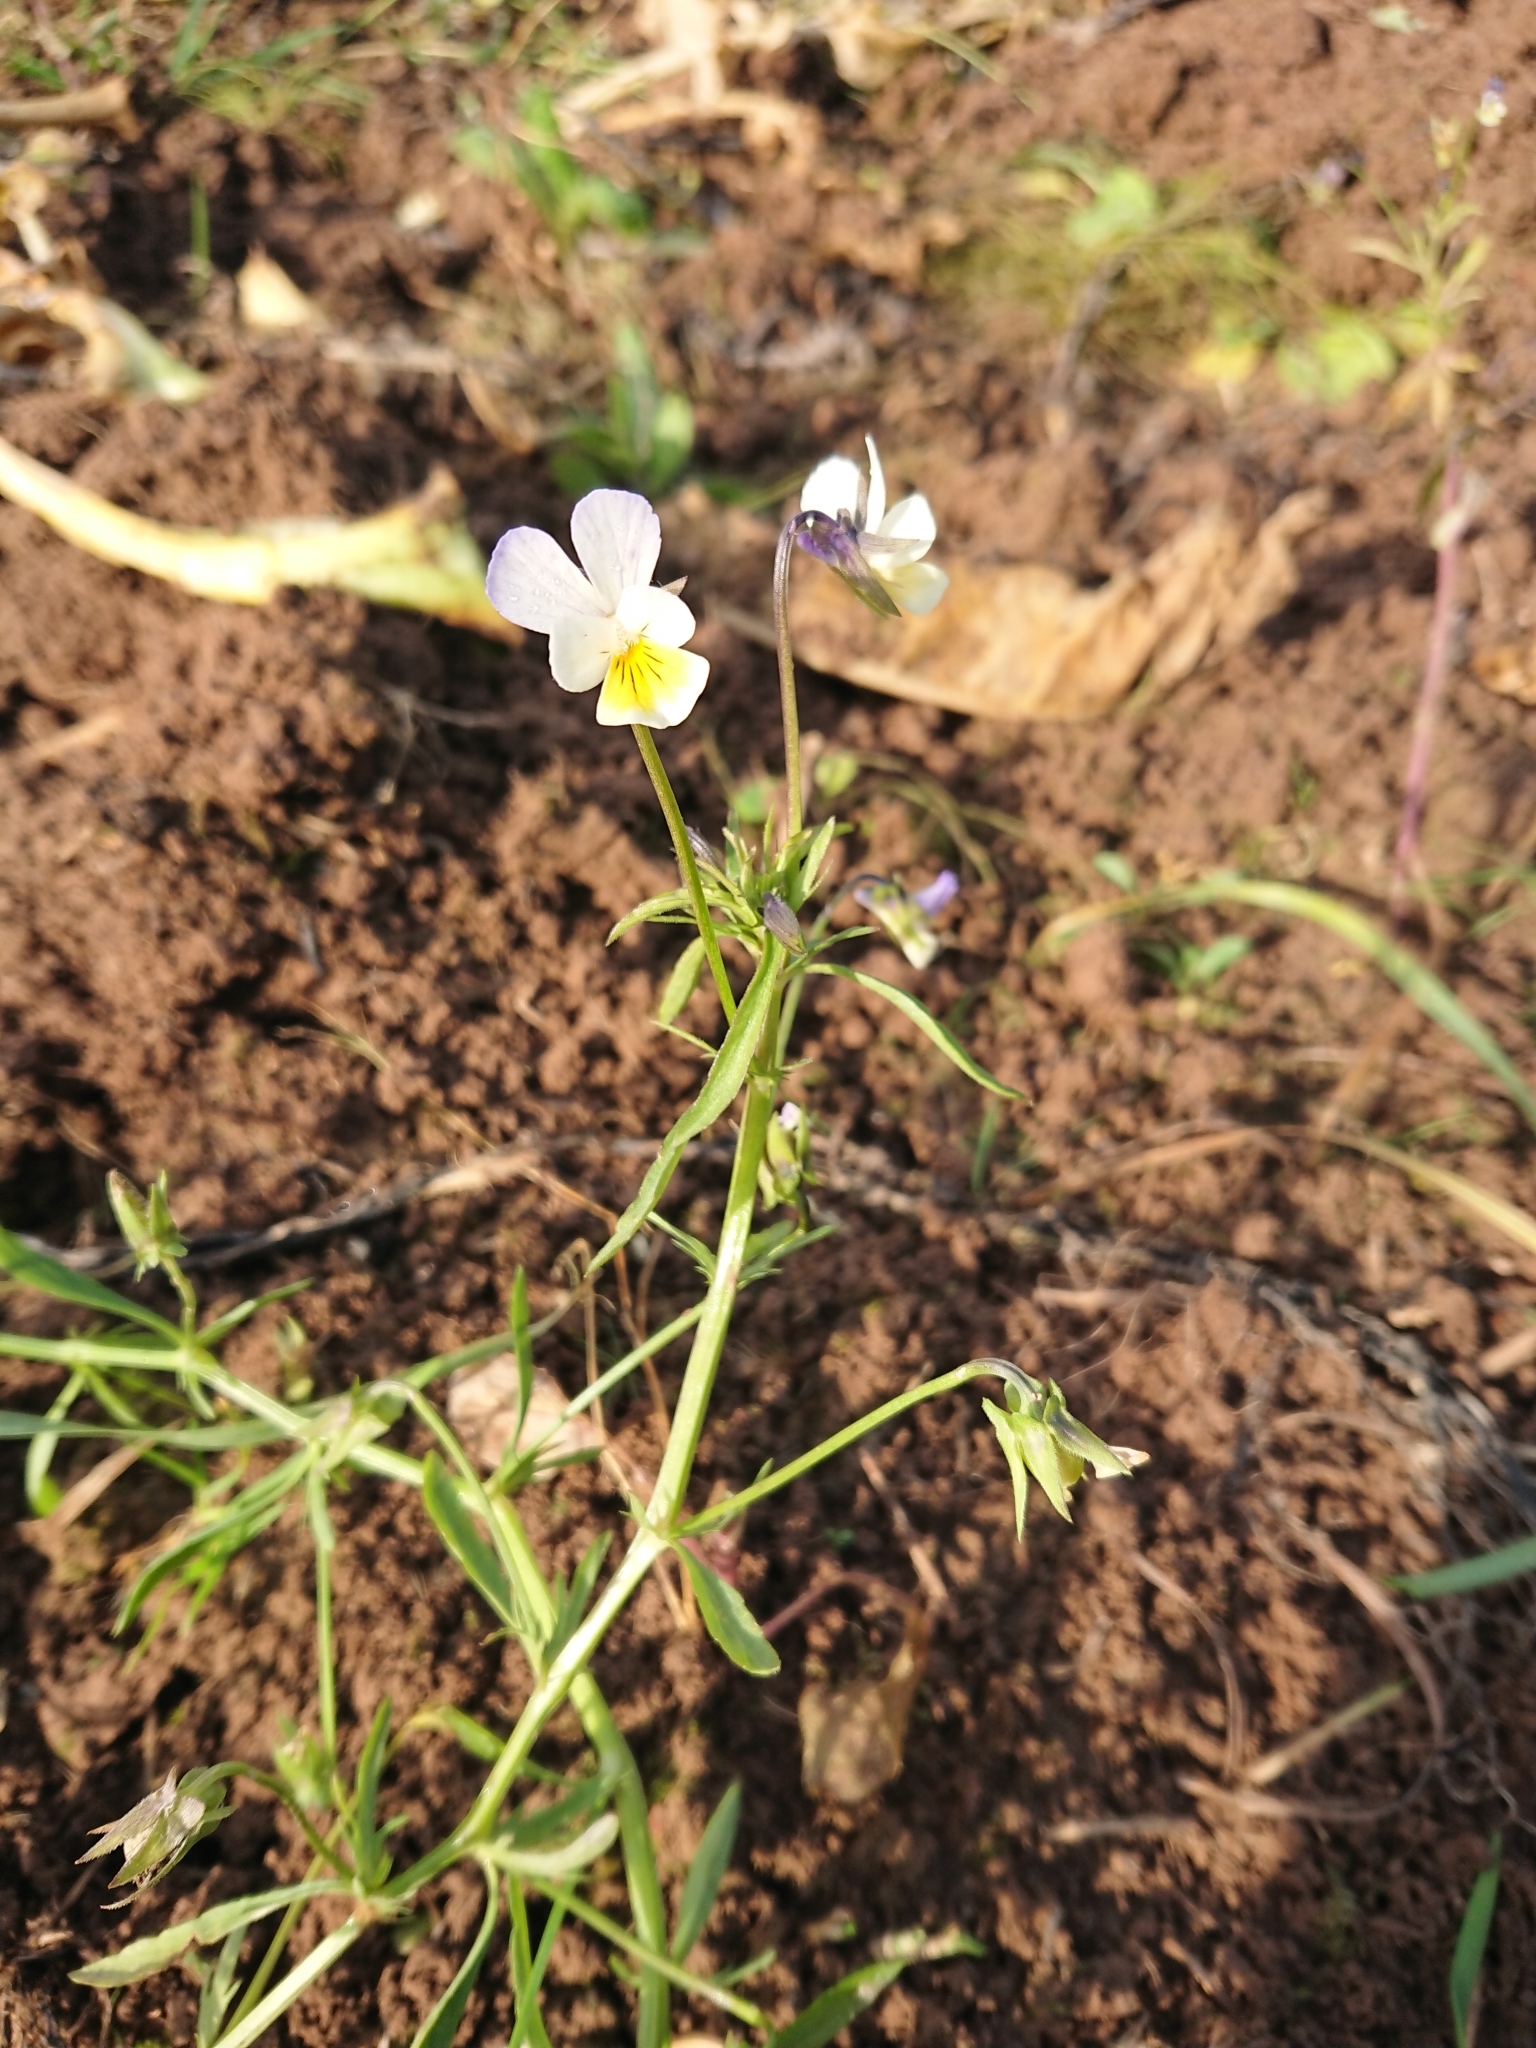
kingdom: Plantae
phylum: Tracheophyta
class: Magnoliopsida
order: Malpighiales
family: Violaceae
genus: Viola
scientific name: Viola tricolor
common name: Pansy
